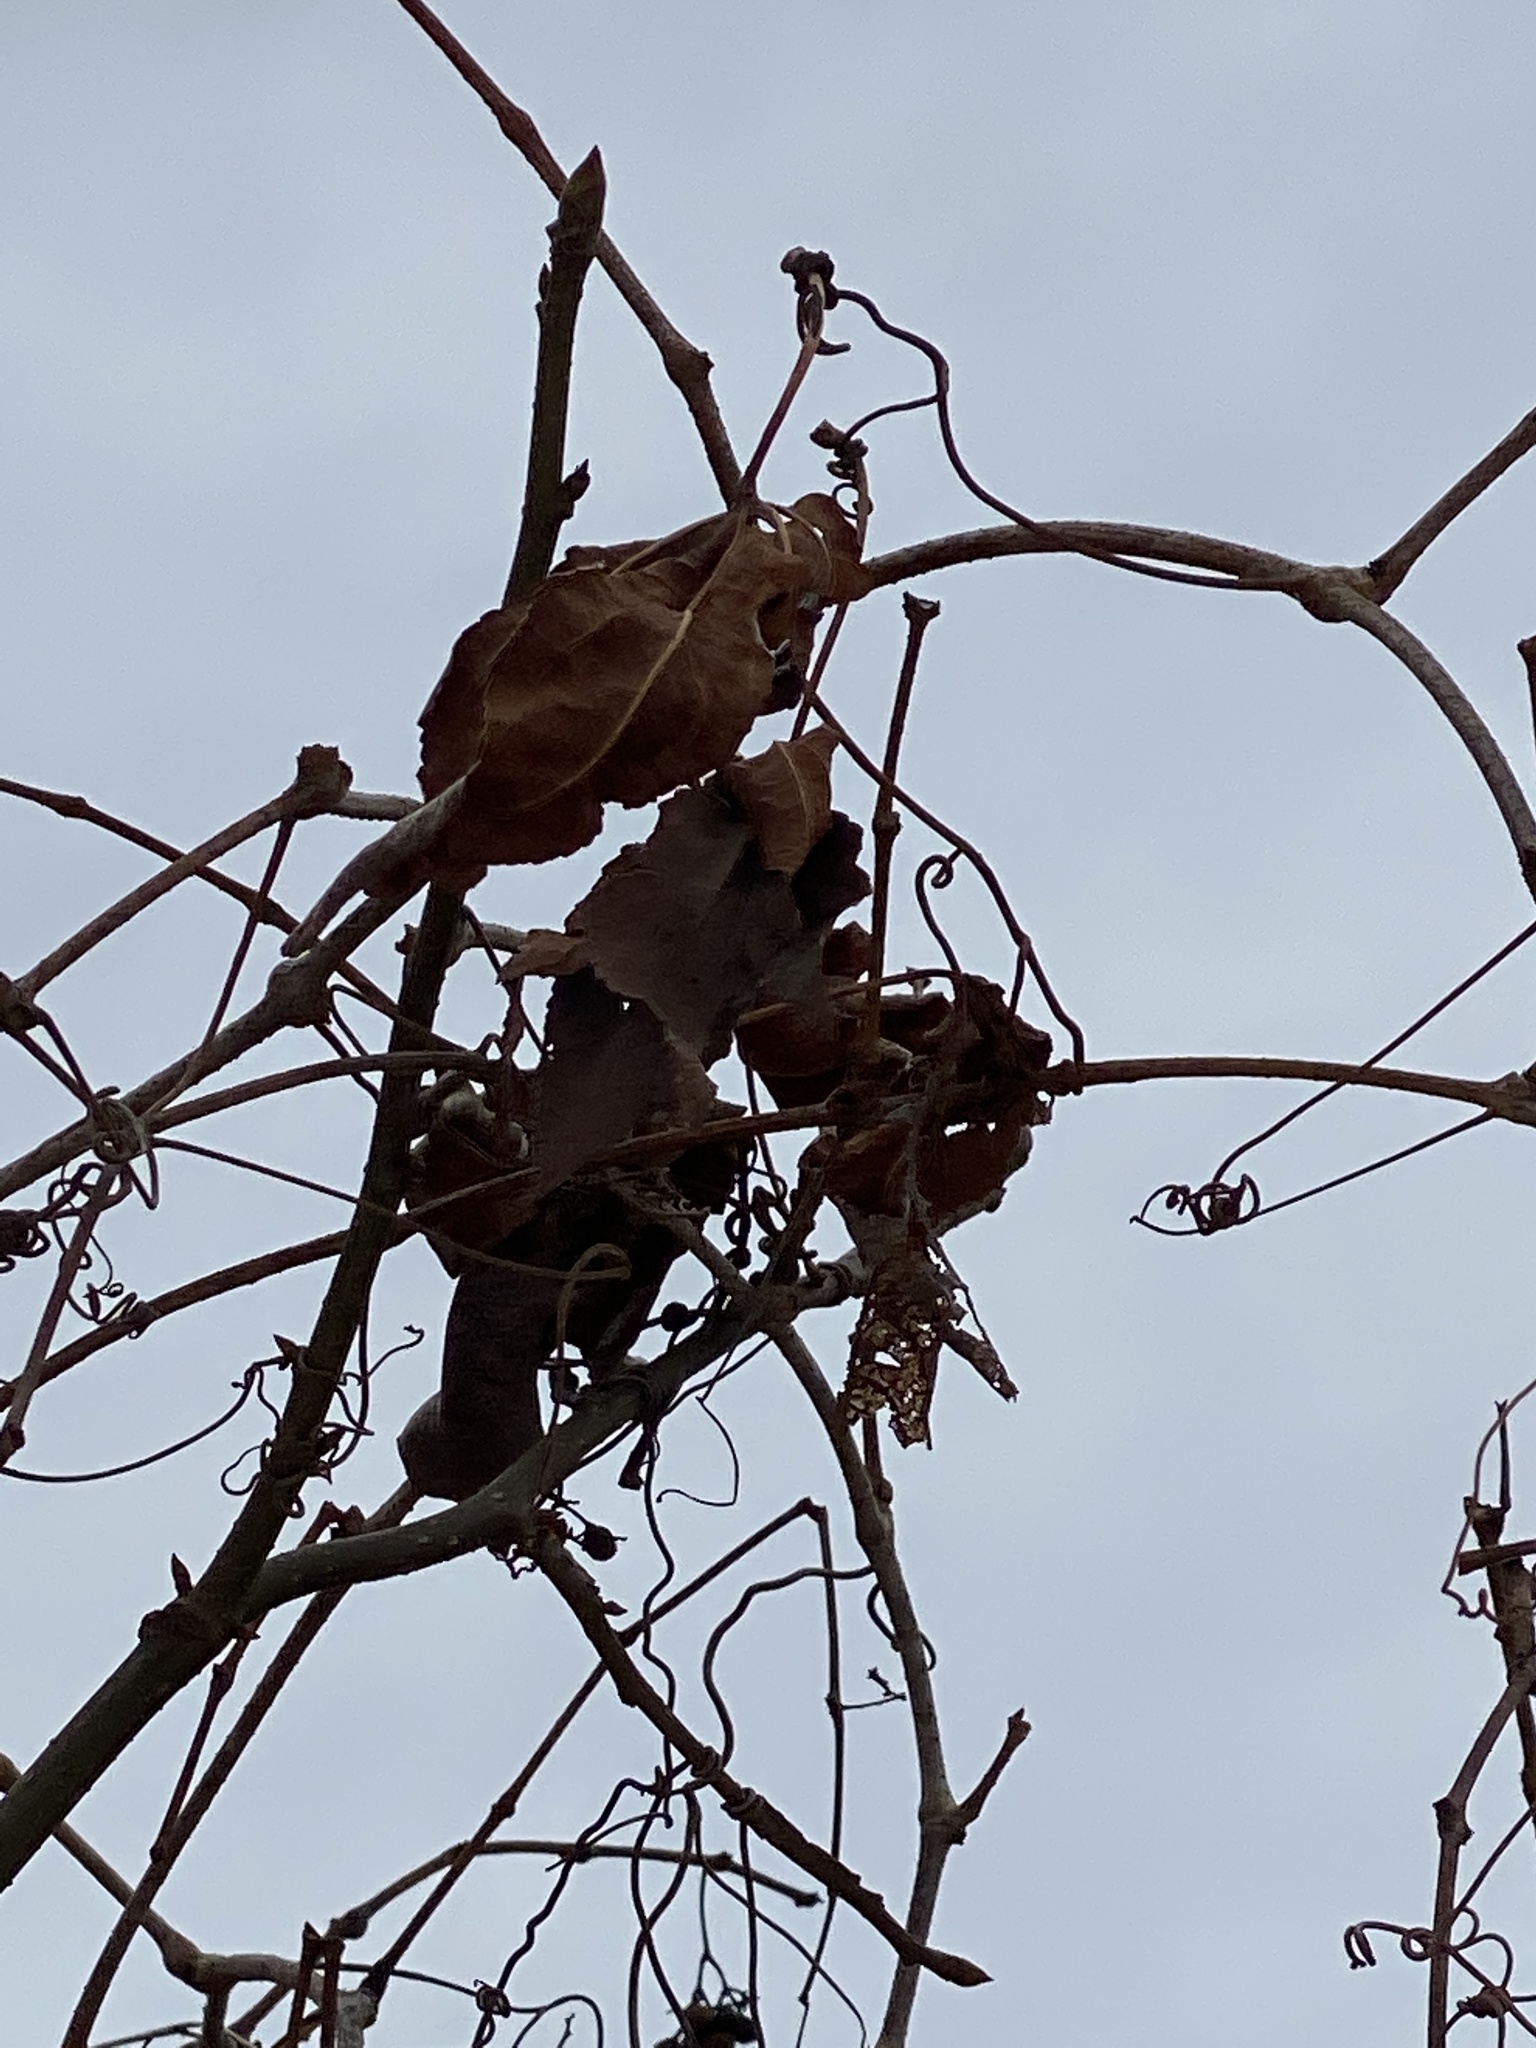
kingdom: Plantae
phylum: Tracheophyta
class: Magnoliopsida
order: Vitales
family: Vitaceae
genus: Ampelopsis
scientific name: Ampelopsis glandulosa
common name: Amur peppervine
